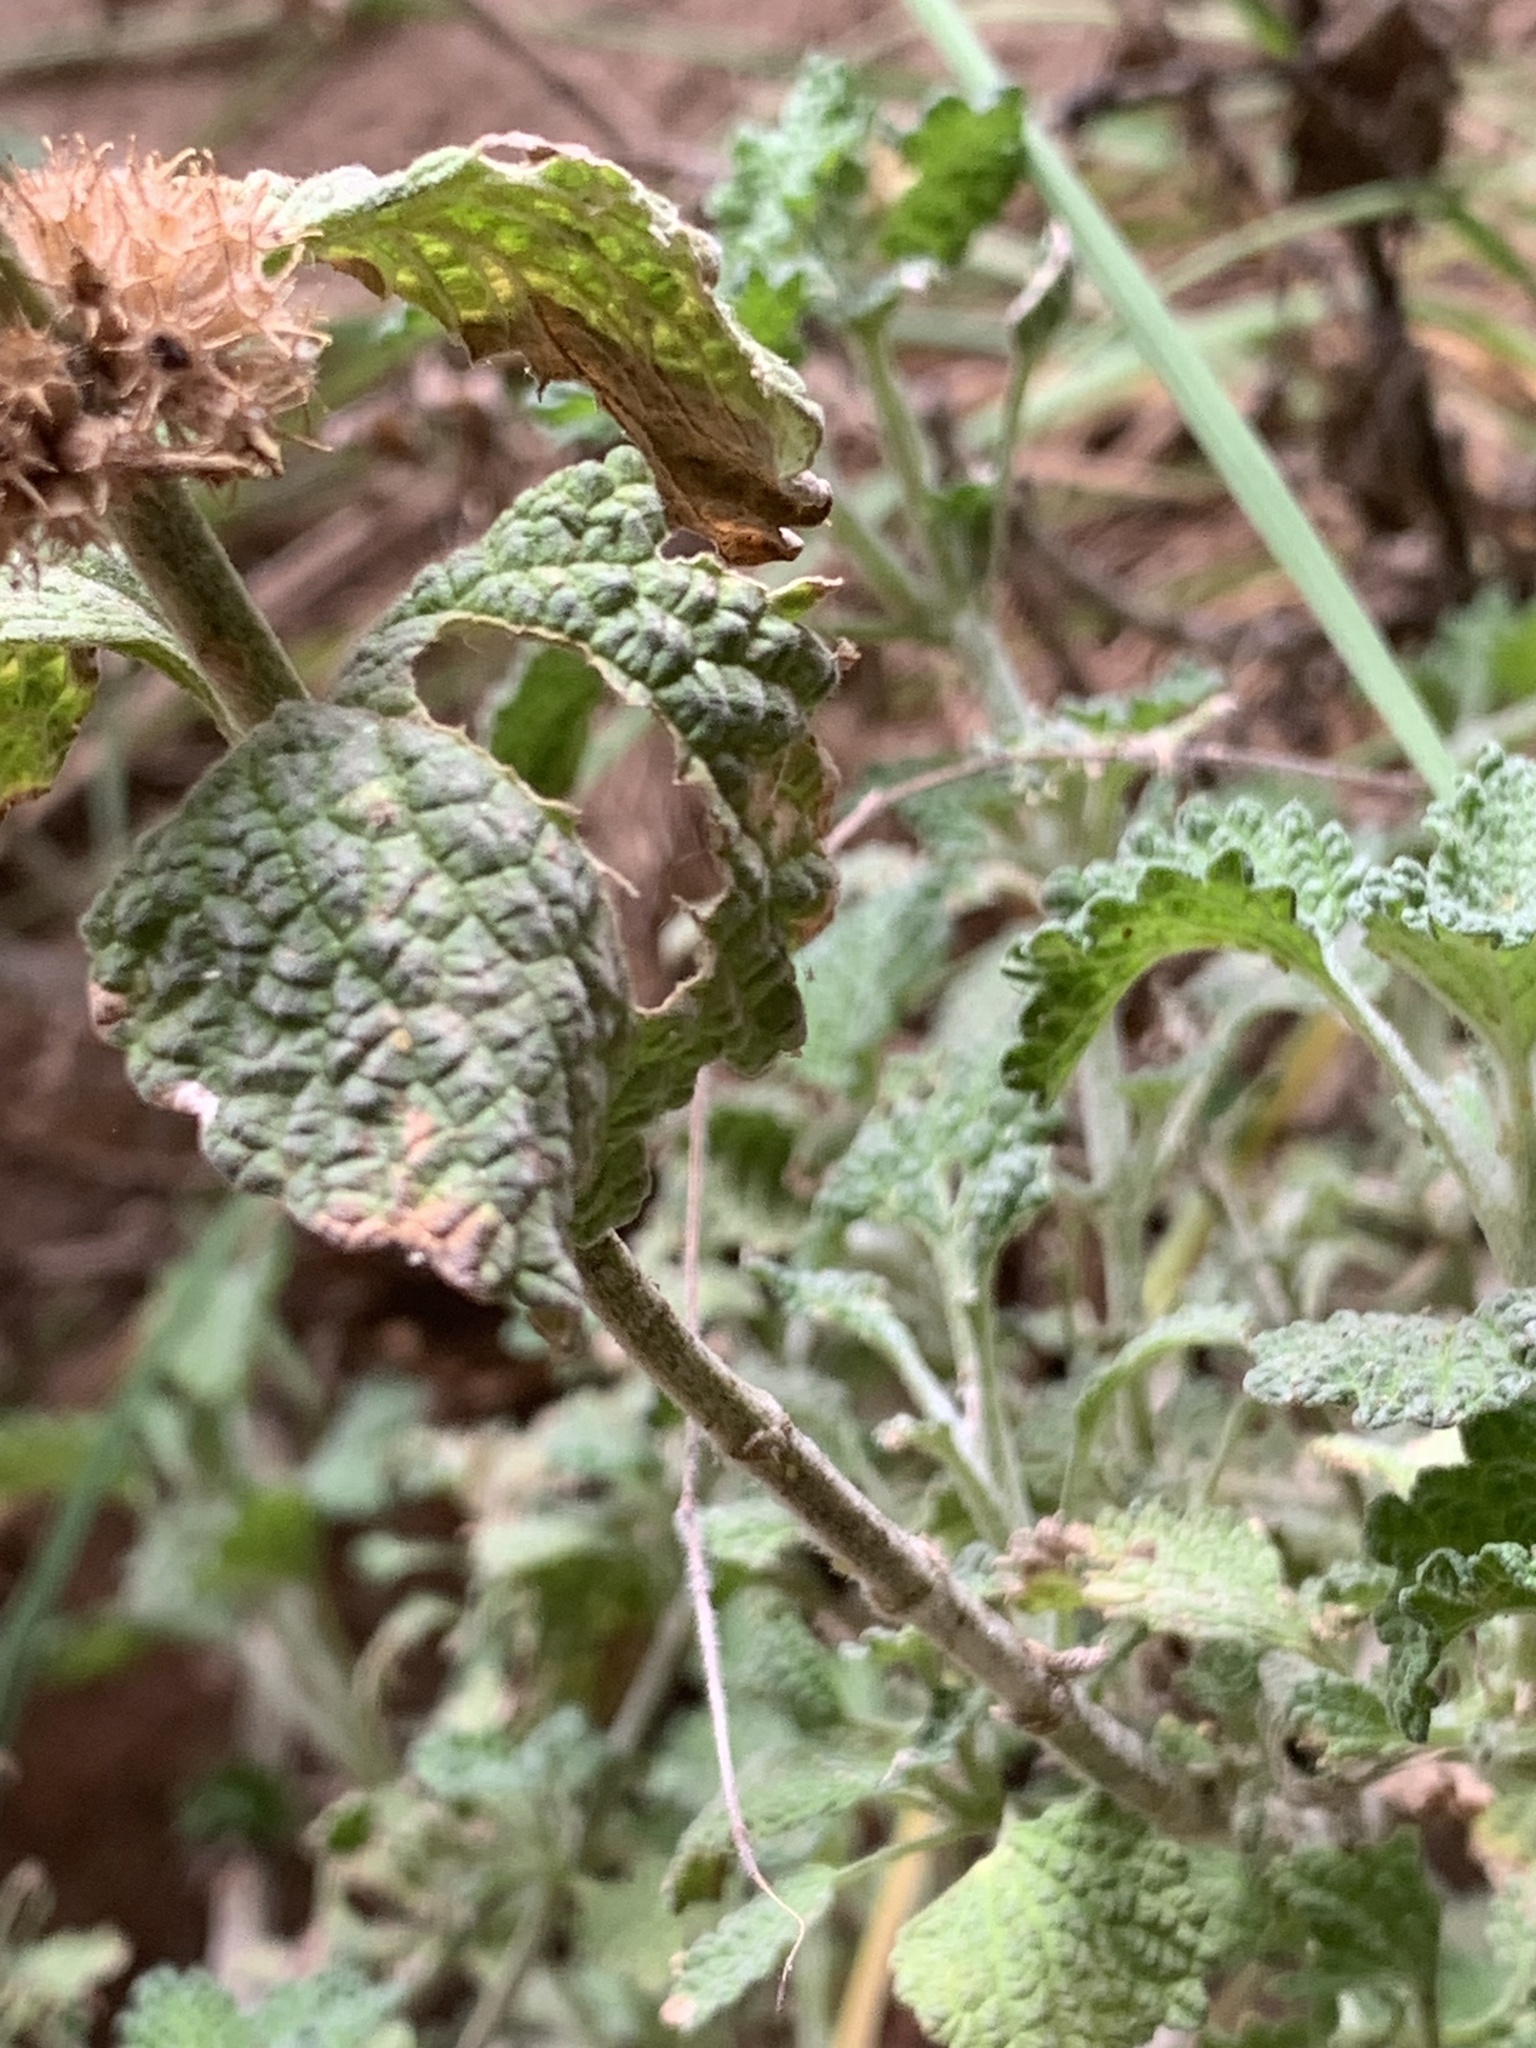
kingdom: Plantae
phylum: Tracheophyta
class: Magnoliopsida
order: Lamiales
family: Lamiaceae
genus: Marrubium
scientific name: Marrubium vulgare
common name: Horehound
